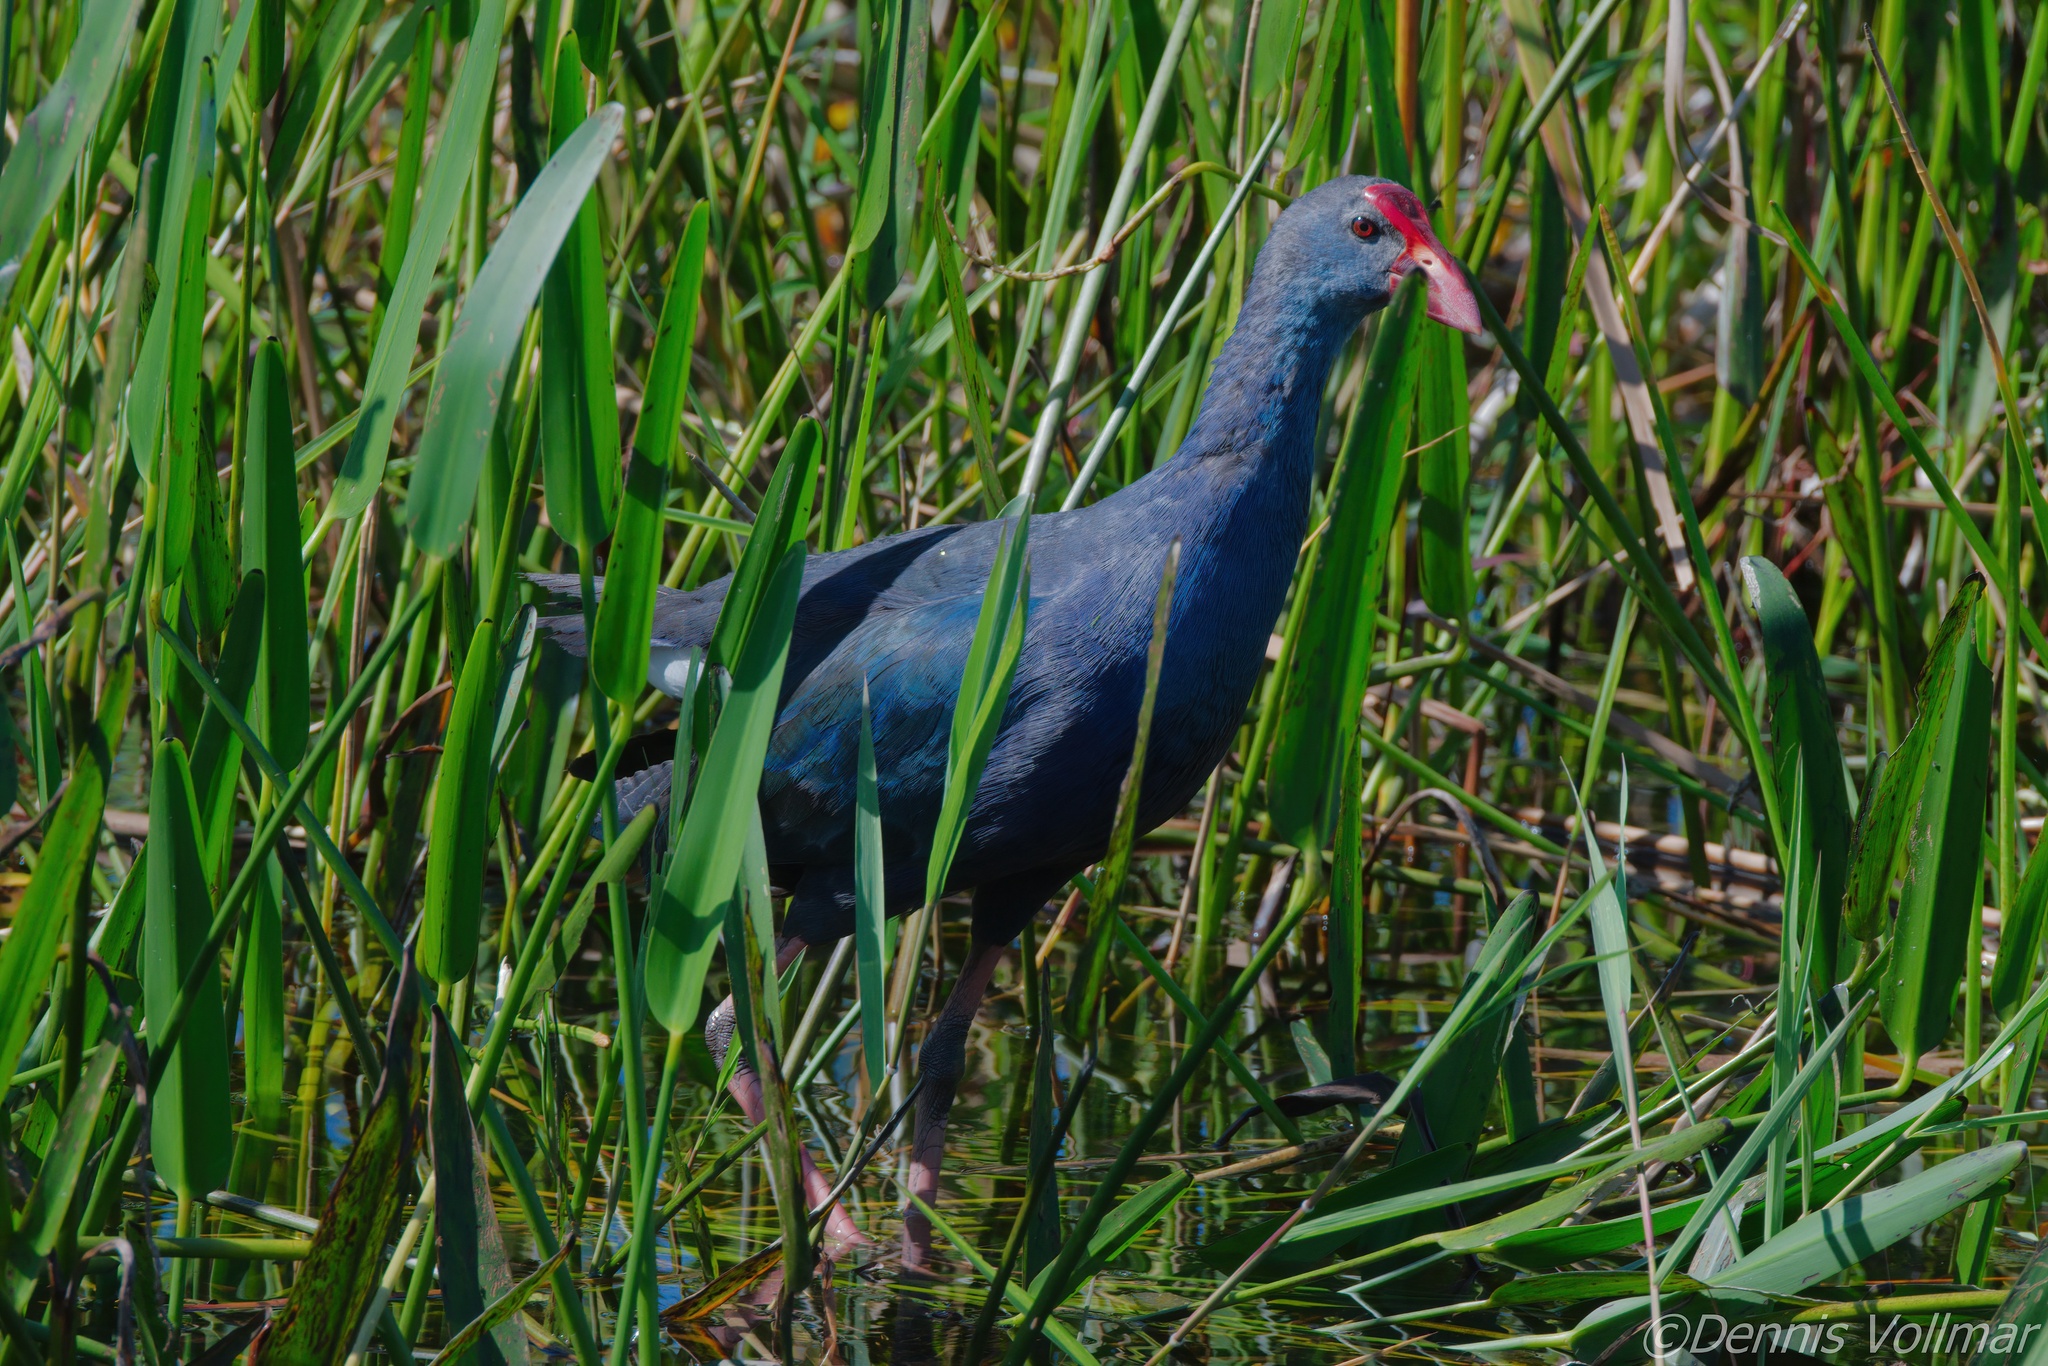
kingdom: Animalia
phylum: Chordata
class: Aves
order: Gruiformes
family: Rallidae
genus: Porphyrio
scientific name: Porphyrio porphyrio
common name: Purple swamphen
